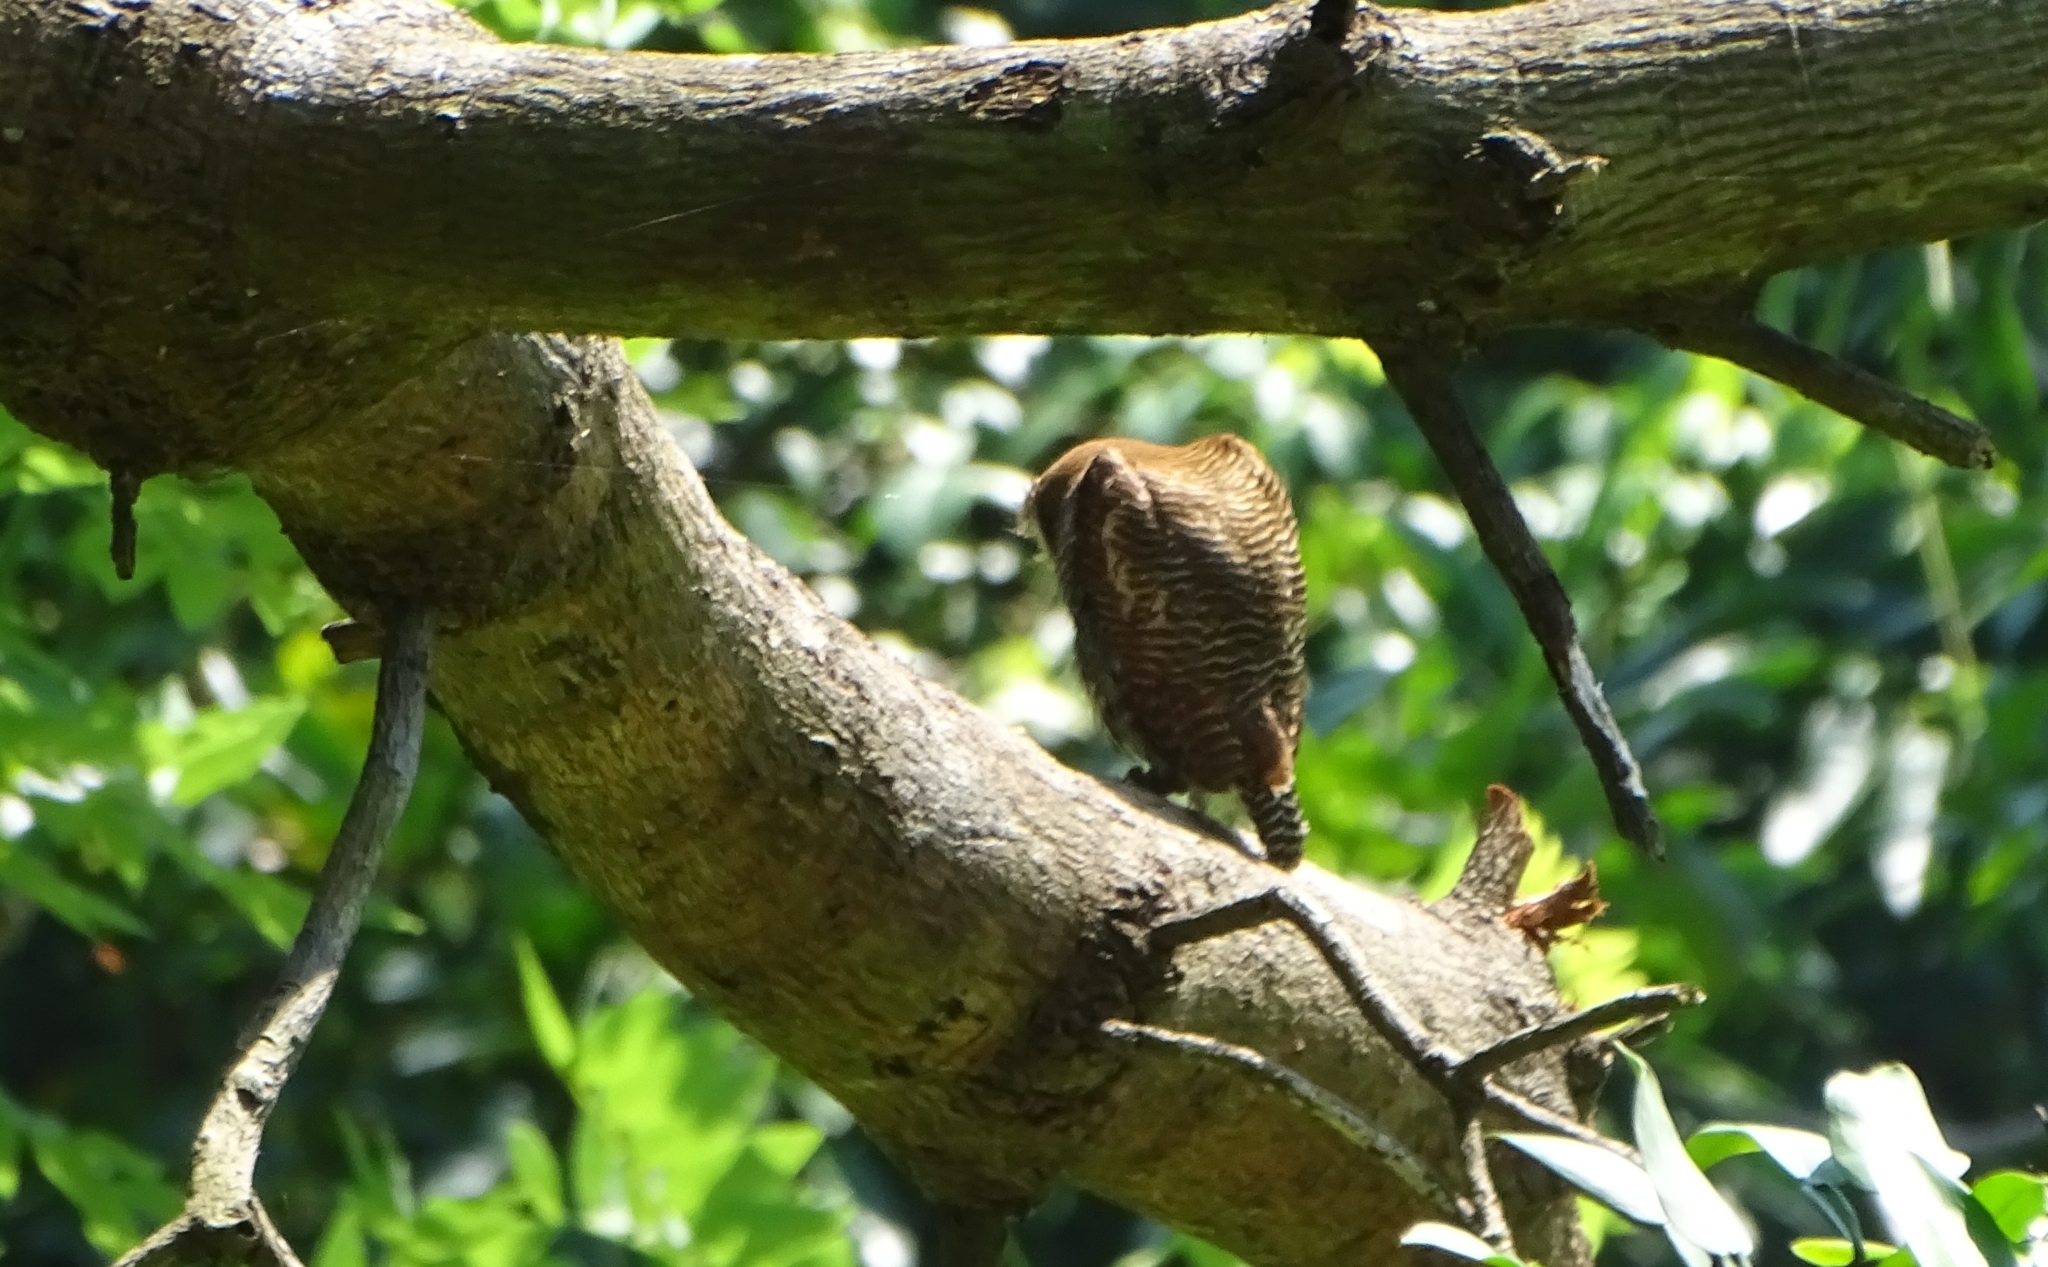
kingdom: Animalia
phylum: Chordata
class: Aves
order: Strigiformes
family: Strigidae
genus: Glaucidium
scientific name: Glaucidium radiatum
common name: Jungle owlet
